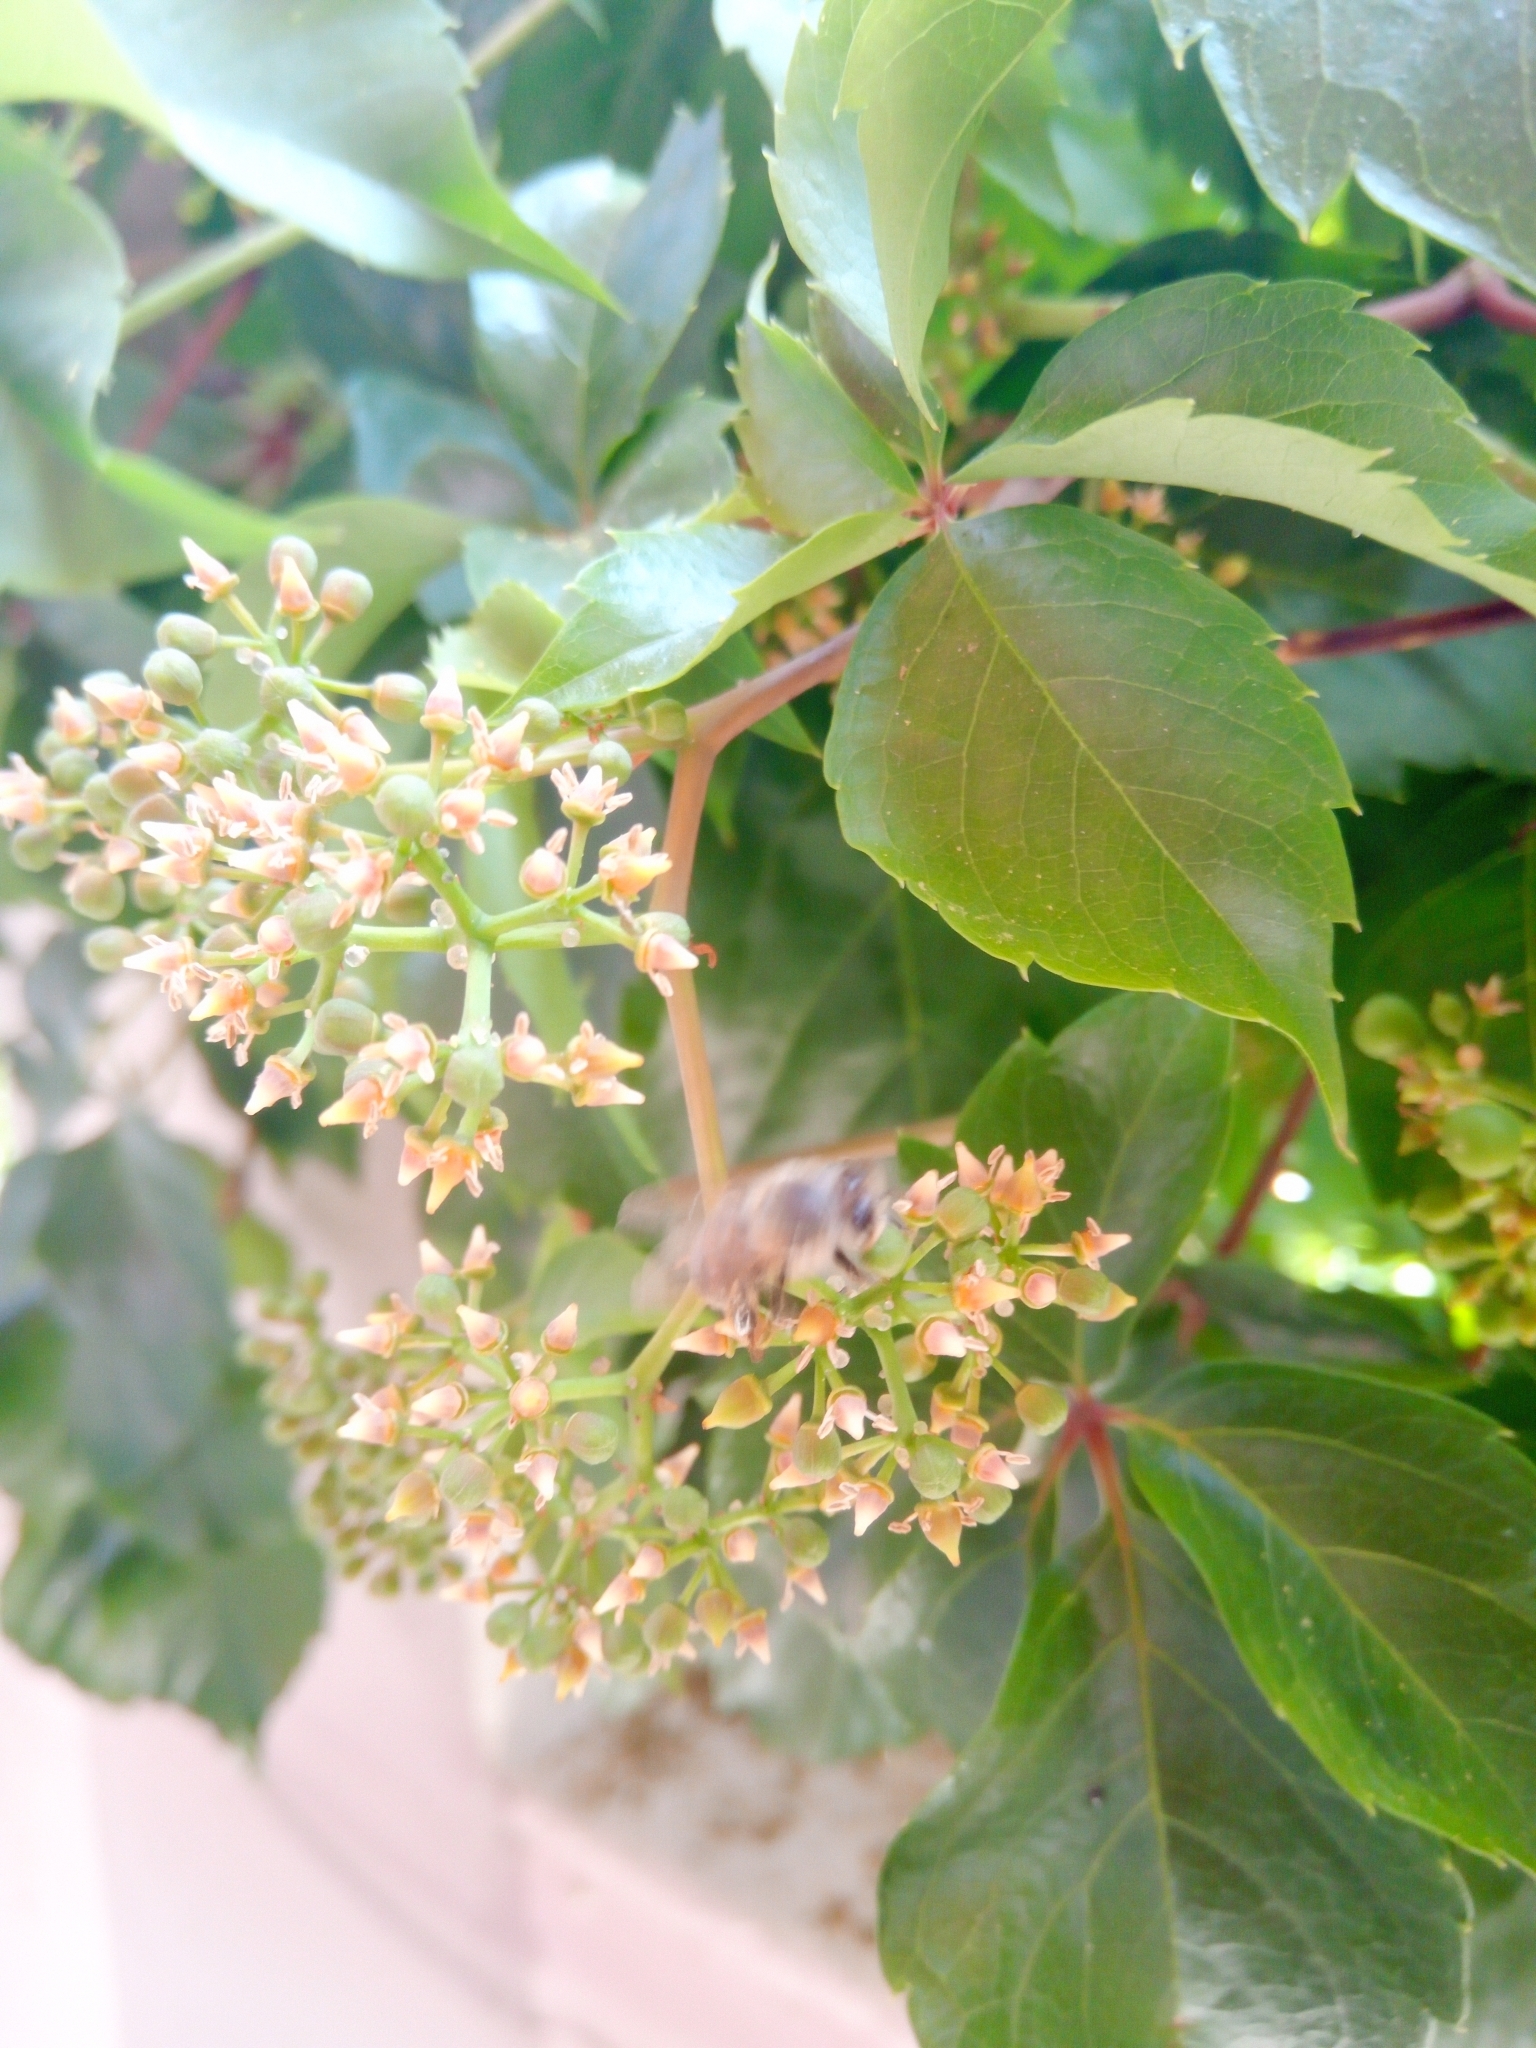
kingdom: Animalia
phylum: Arthropoda
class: Insecta
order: Hymenoptera
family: Apidae
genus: Apis
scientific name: Apis mellifera
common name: Honey bee
